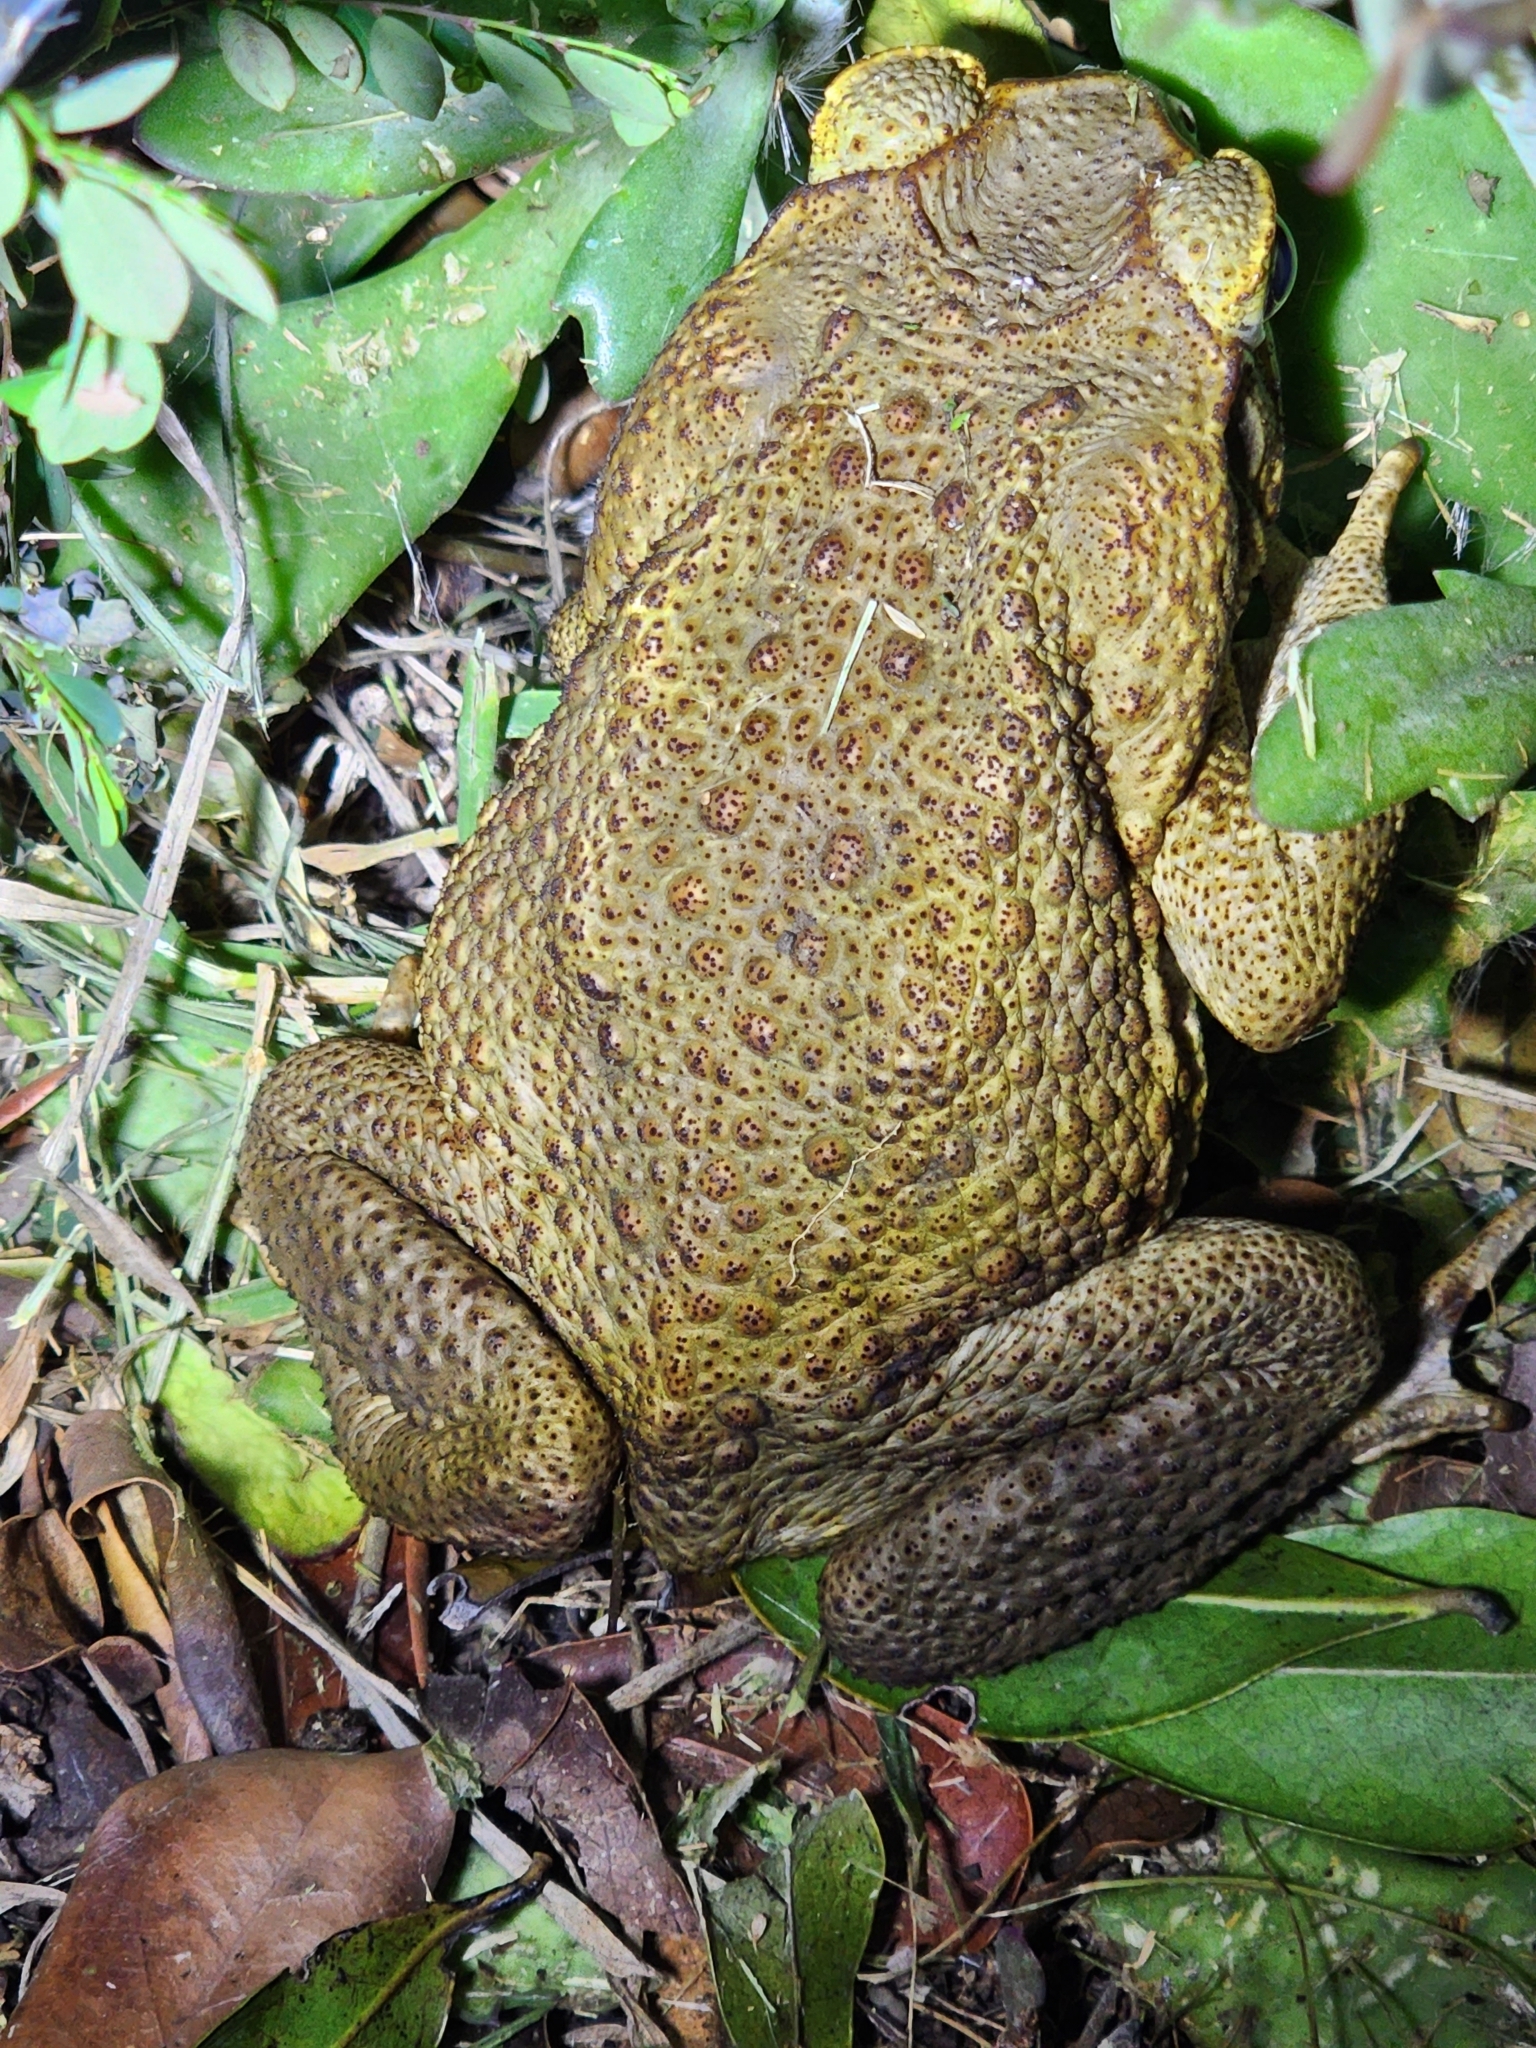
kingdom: Animalia
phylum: Chordata
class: Amphibia
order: Anura
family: Bufonidae
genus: Rhinella
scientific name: Rhinella marina
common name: Cane toad
